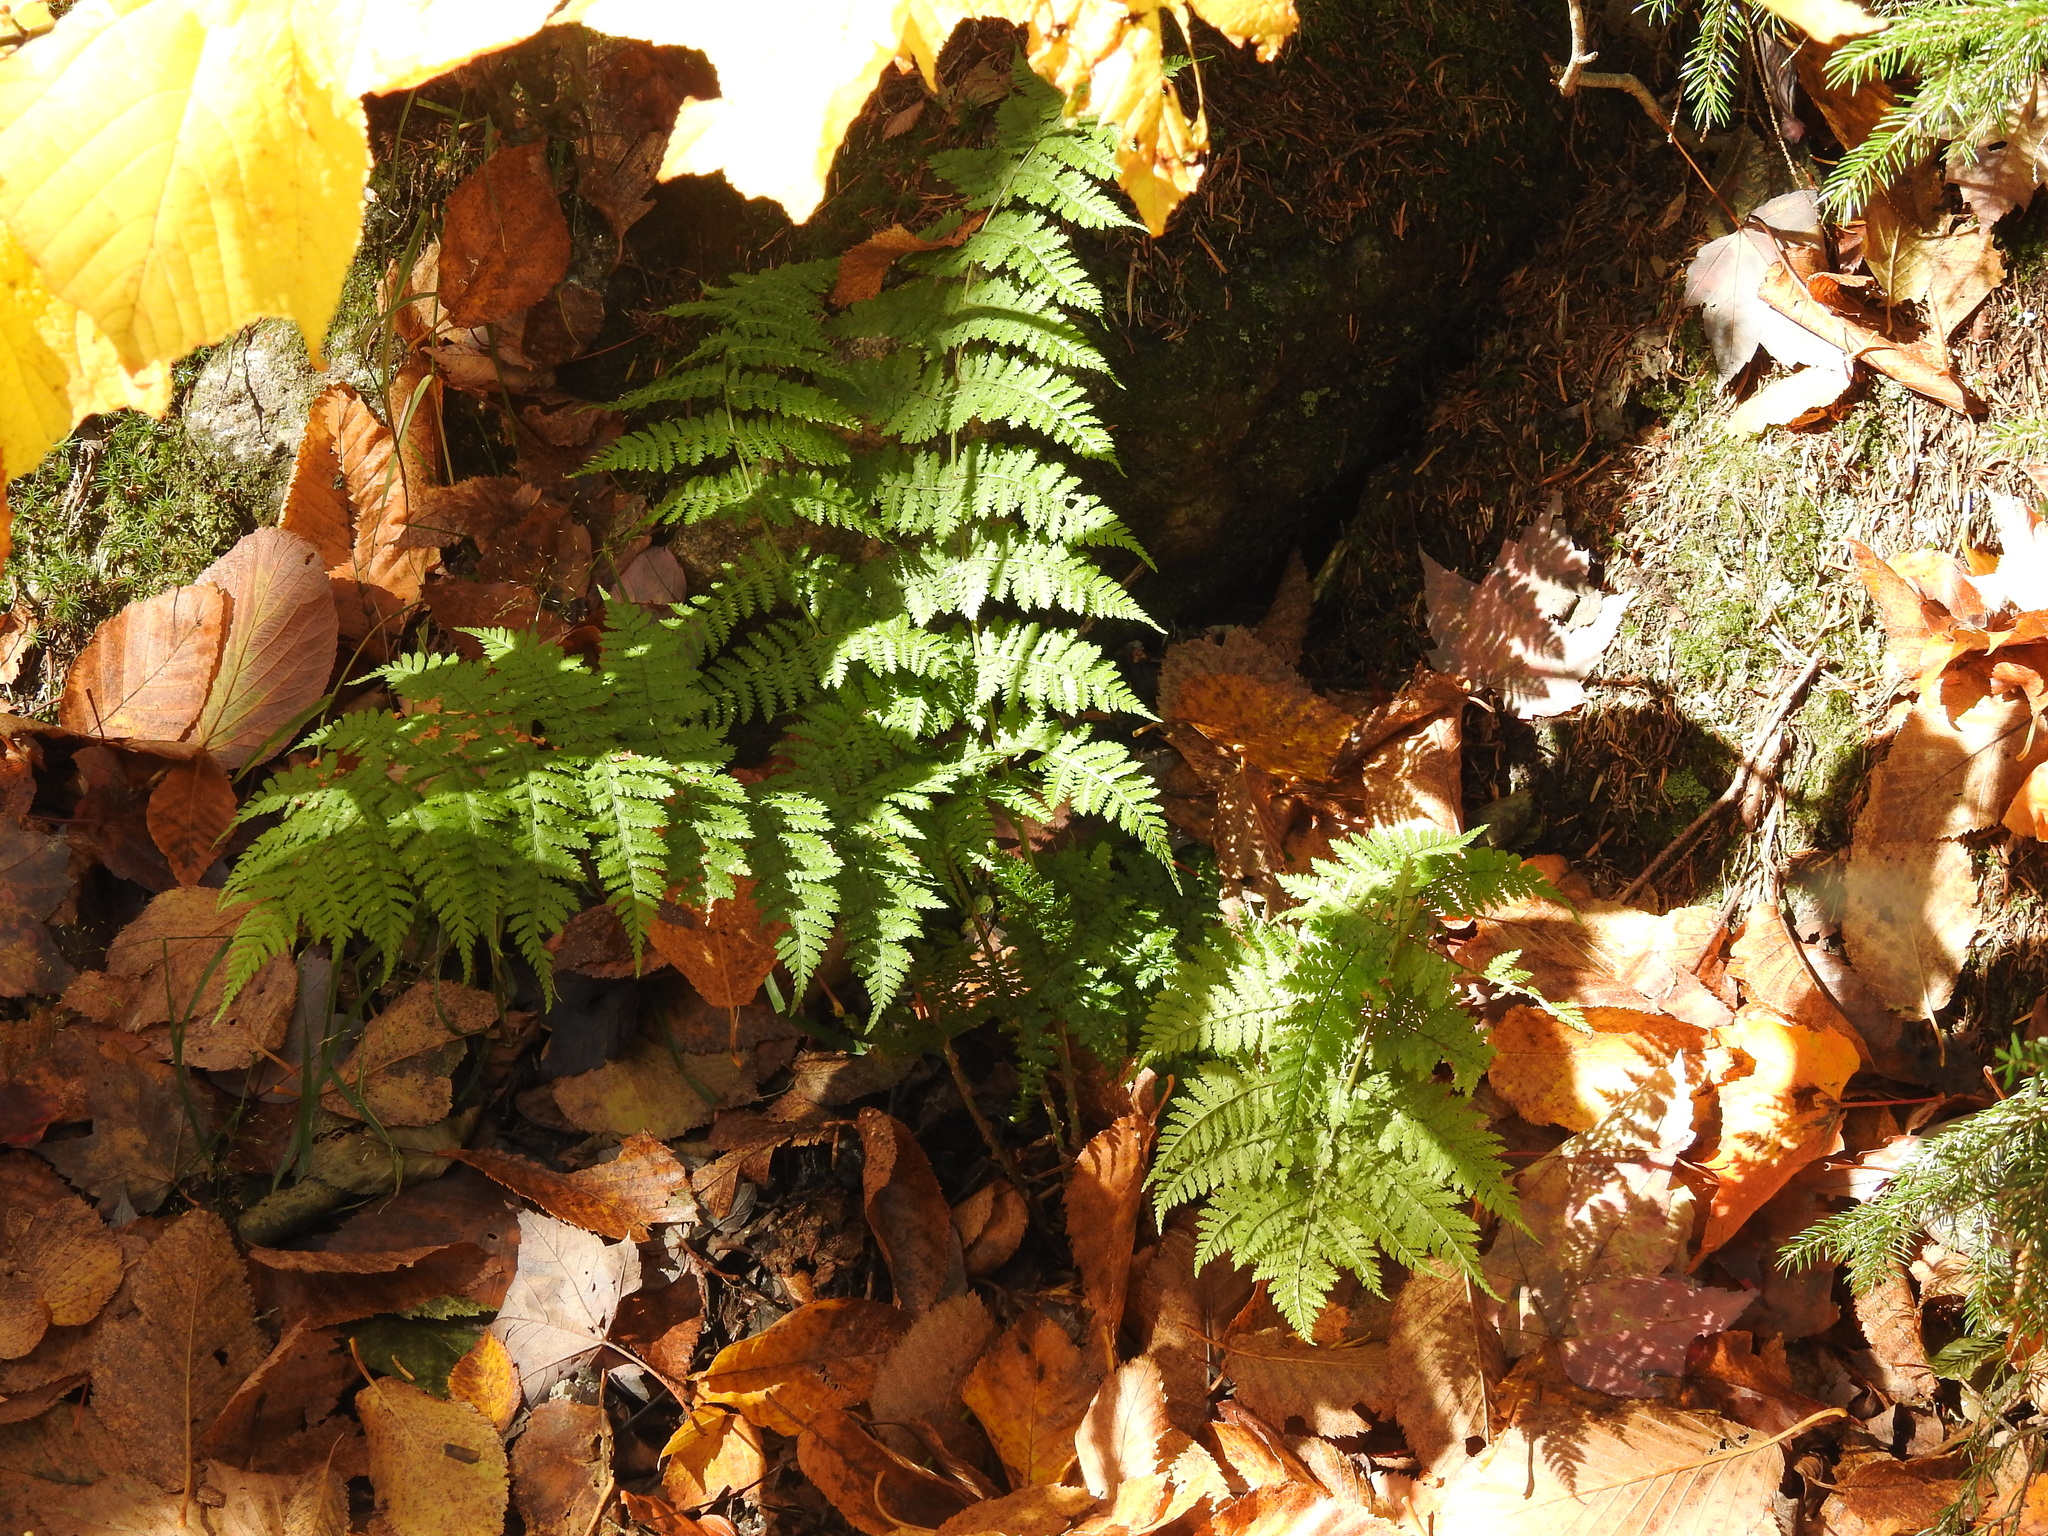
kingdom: Plantae
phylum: Tracheophyta
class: Polypodiopsida
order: Polypodiales
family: Dryopteridaceae
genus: Dryopteris
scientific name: Dryopteris intermedia
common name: Evergreen wood fern
